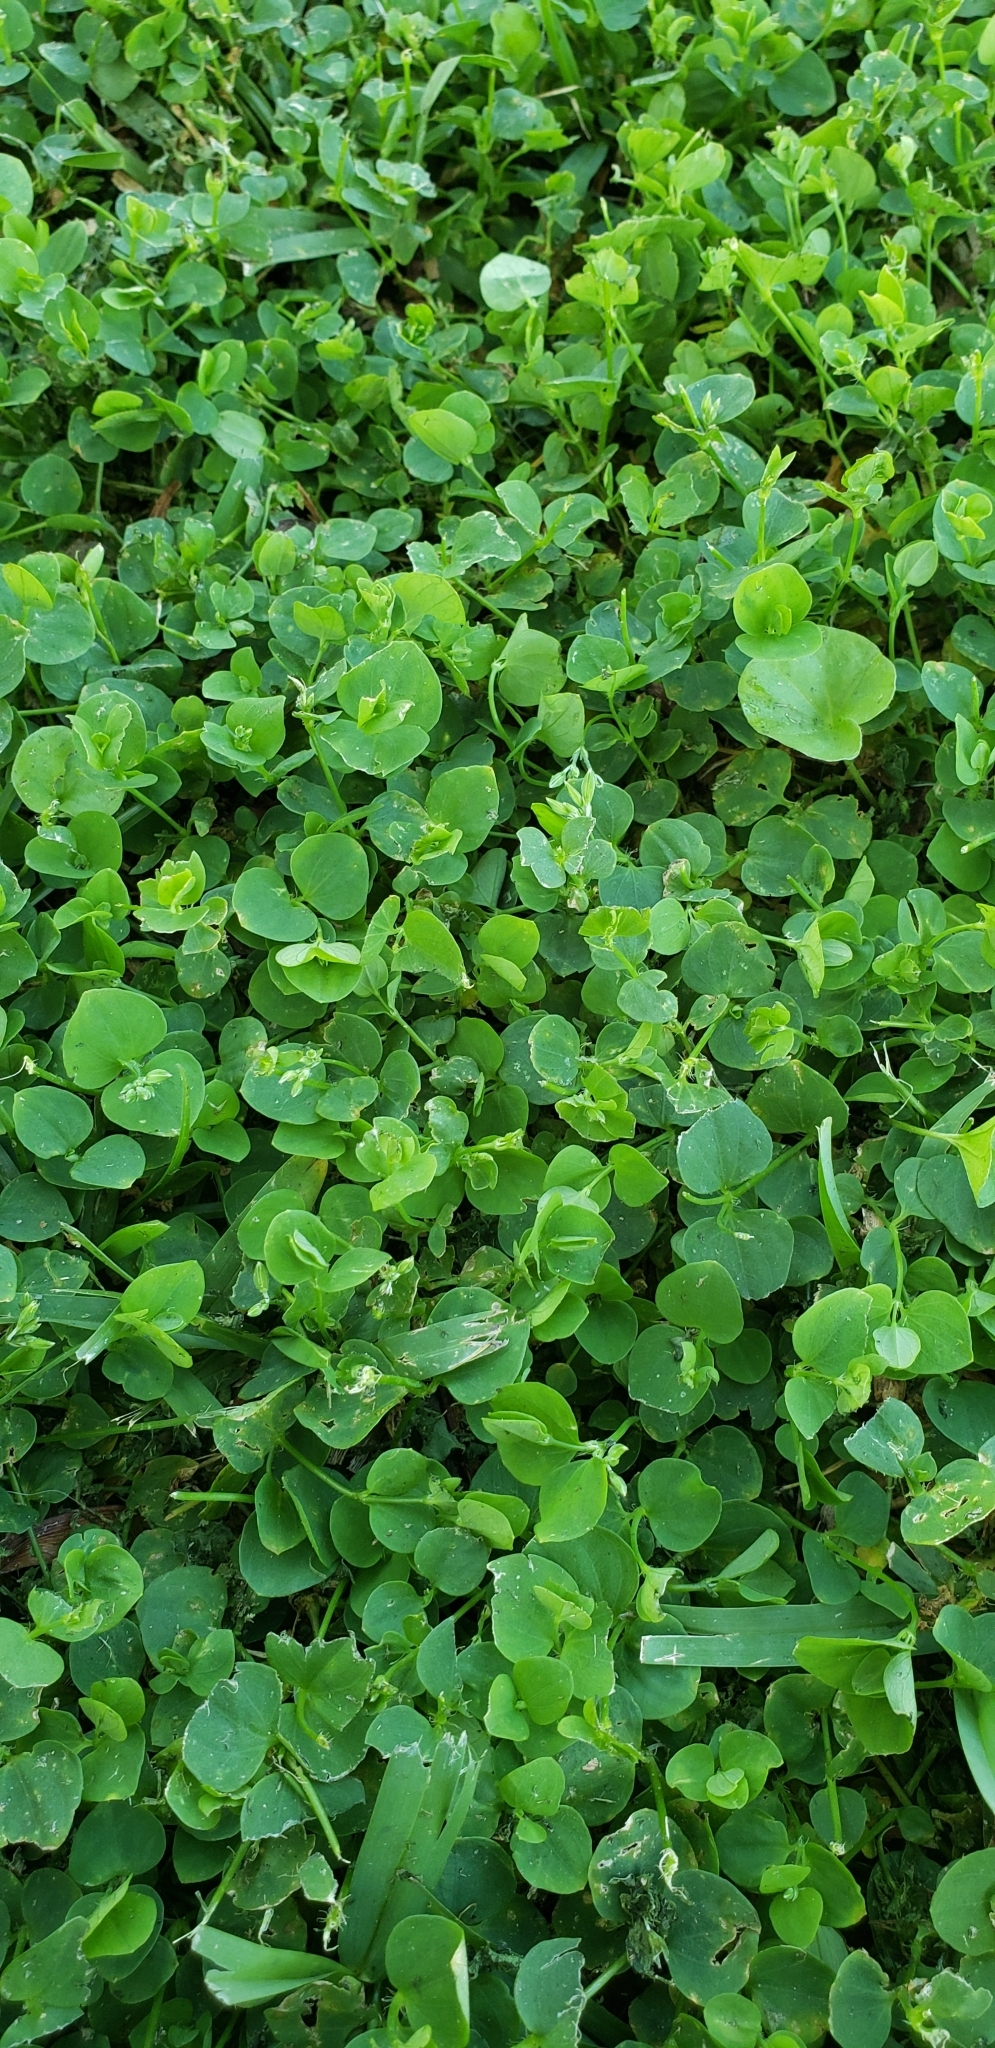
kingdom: Plantae
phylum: Tracheophyta
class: Magnoliopsida
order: Caryophyllales
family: Caryophyllaceae
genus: Drymaria
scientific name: Drymaria cordata
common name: Whitesnow
